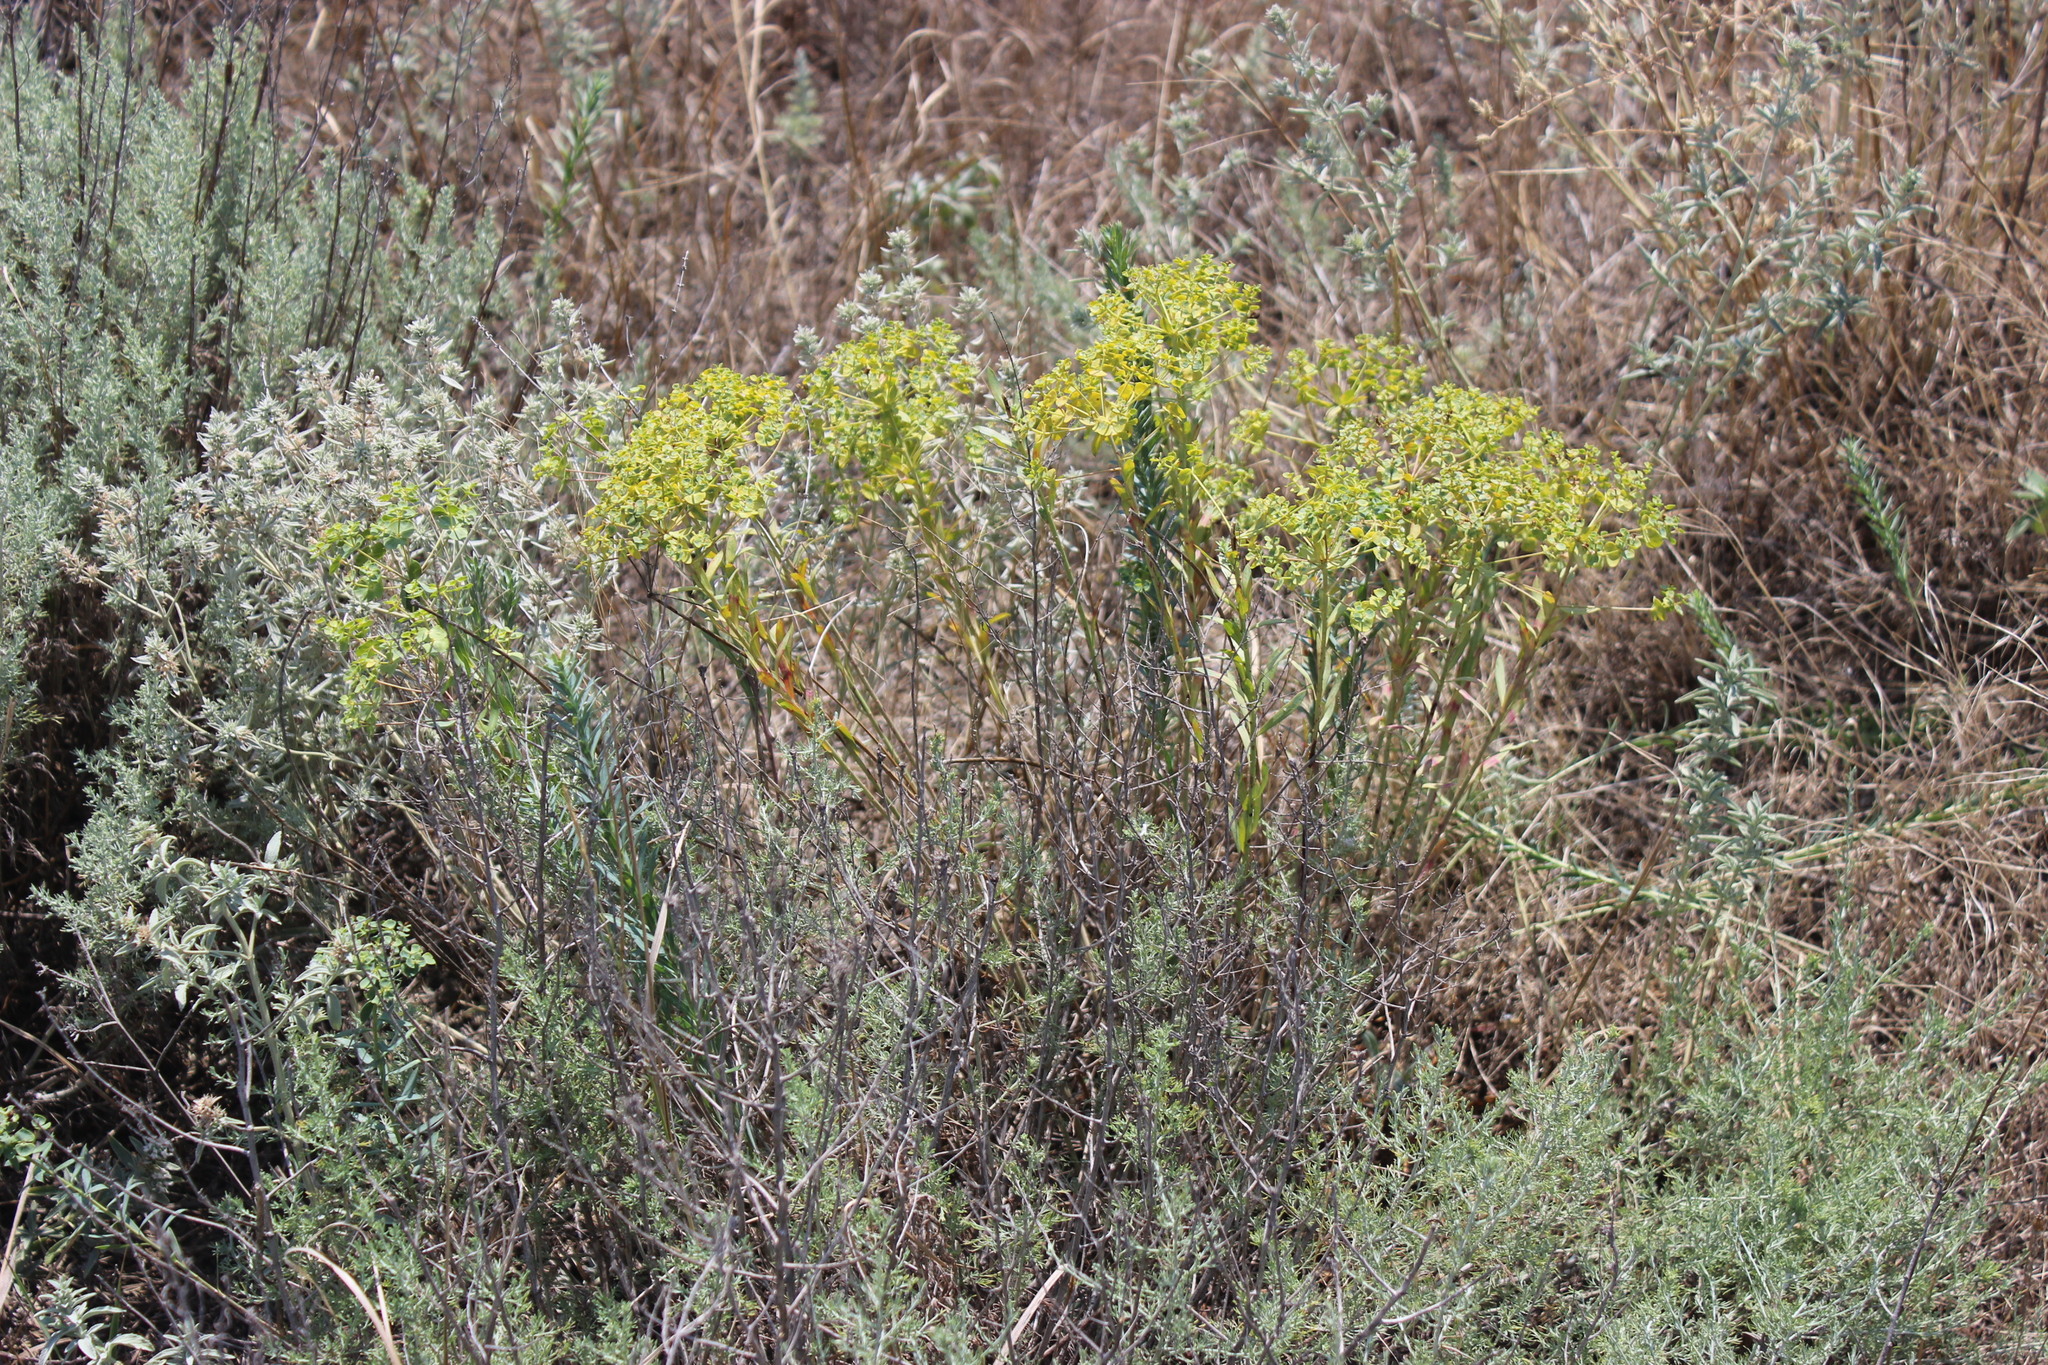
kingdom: Plantae
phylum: Tracheophyta
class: Magnoliopsida
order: Malpighiales
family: Euphorbiaceae
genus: Euphorbia
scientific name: Euphorbia seguieriana
